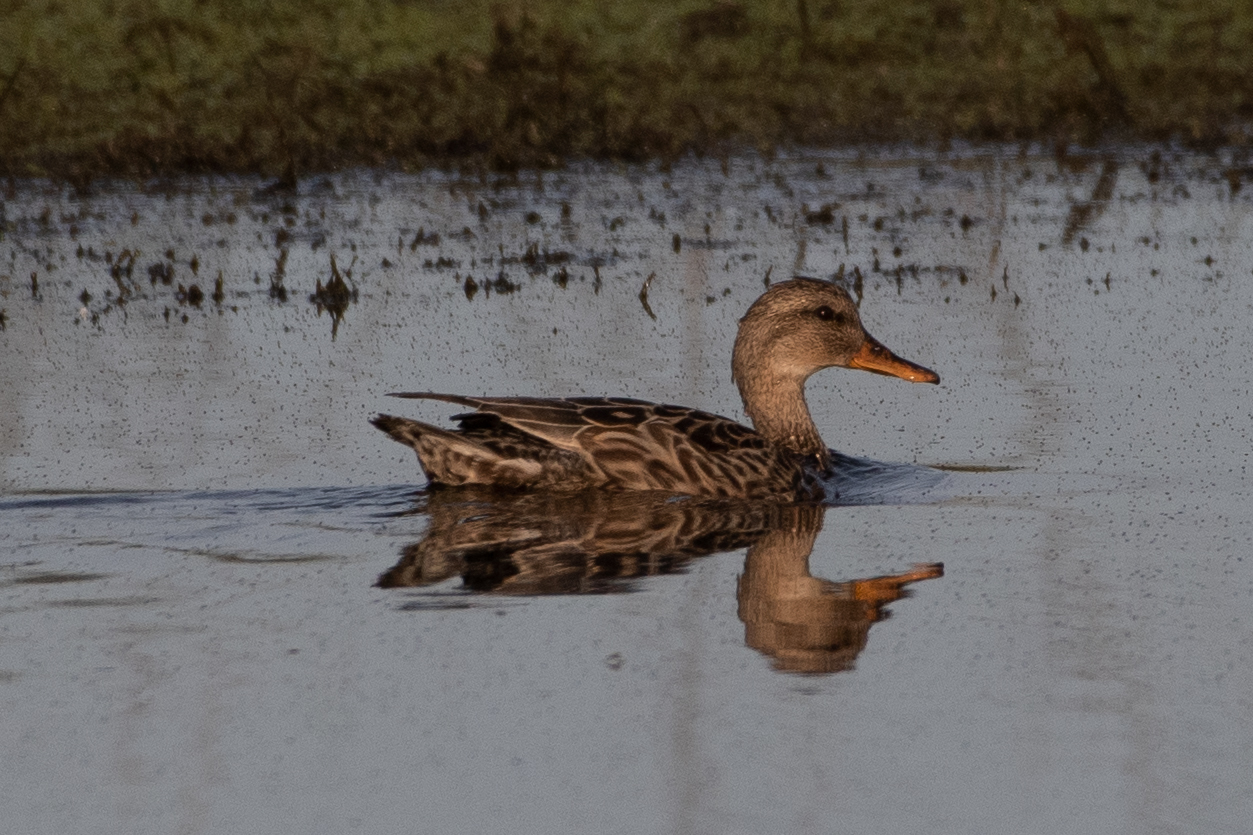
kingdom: Animalia
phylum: Chordata
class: Aves
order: Anseriformes
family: Anatidae
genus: Mareca
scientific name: Mareca strepera
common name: Gadwall
